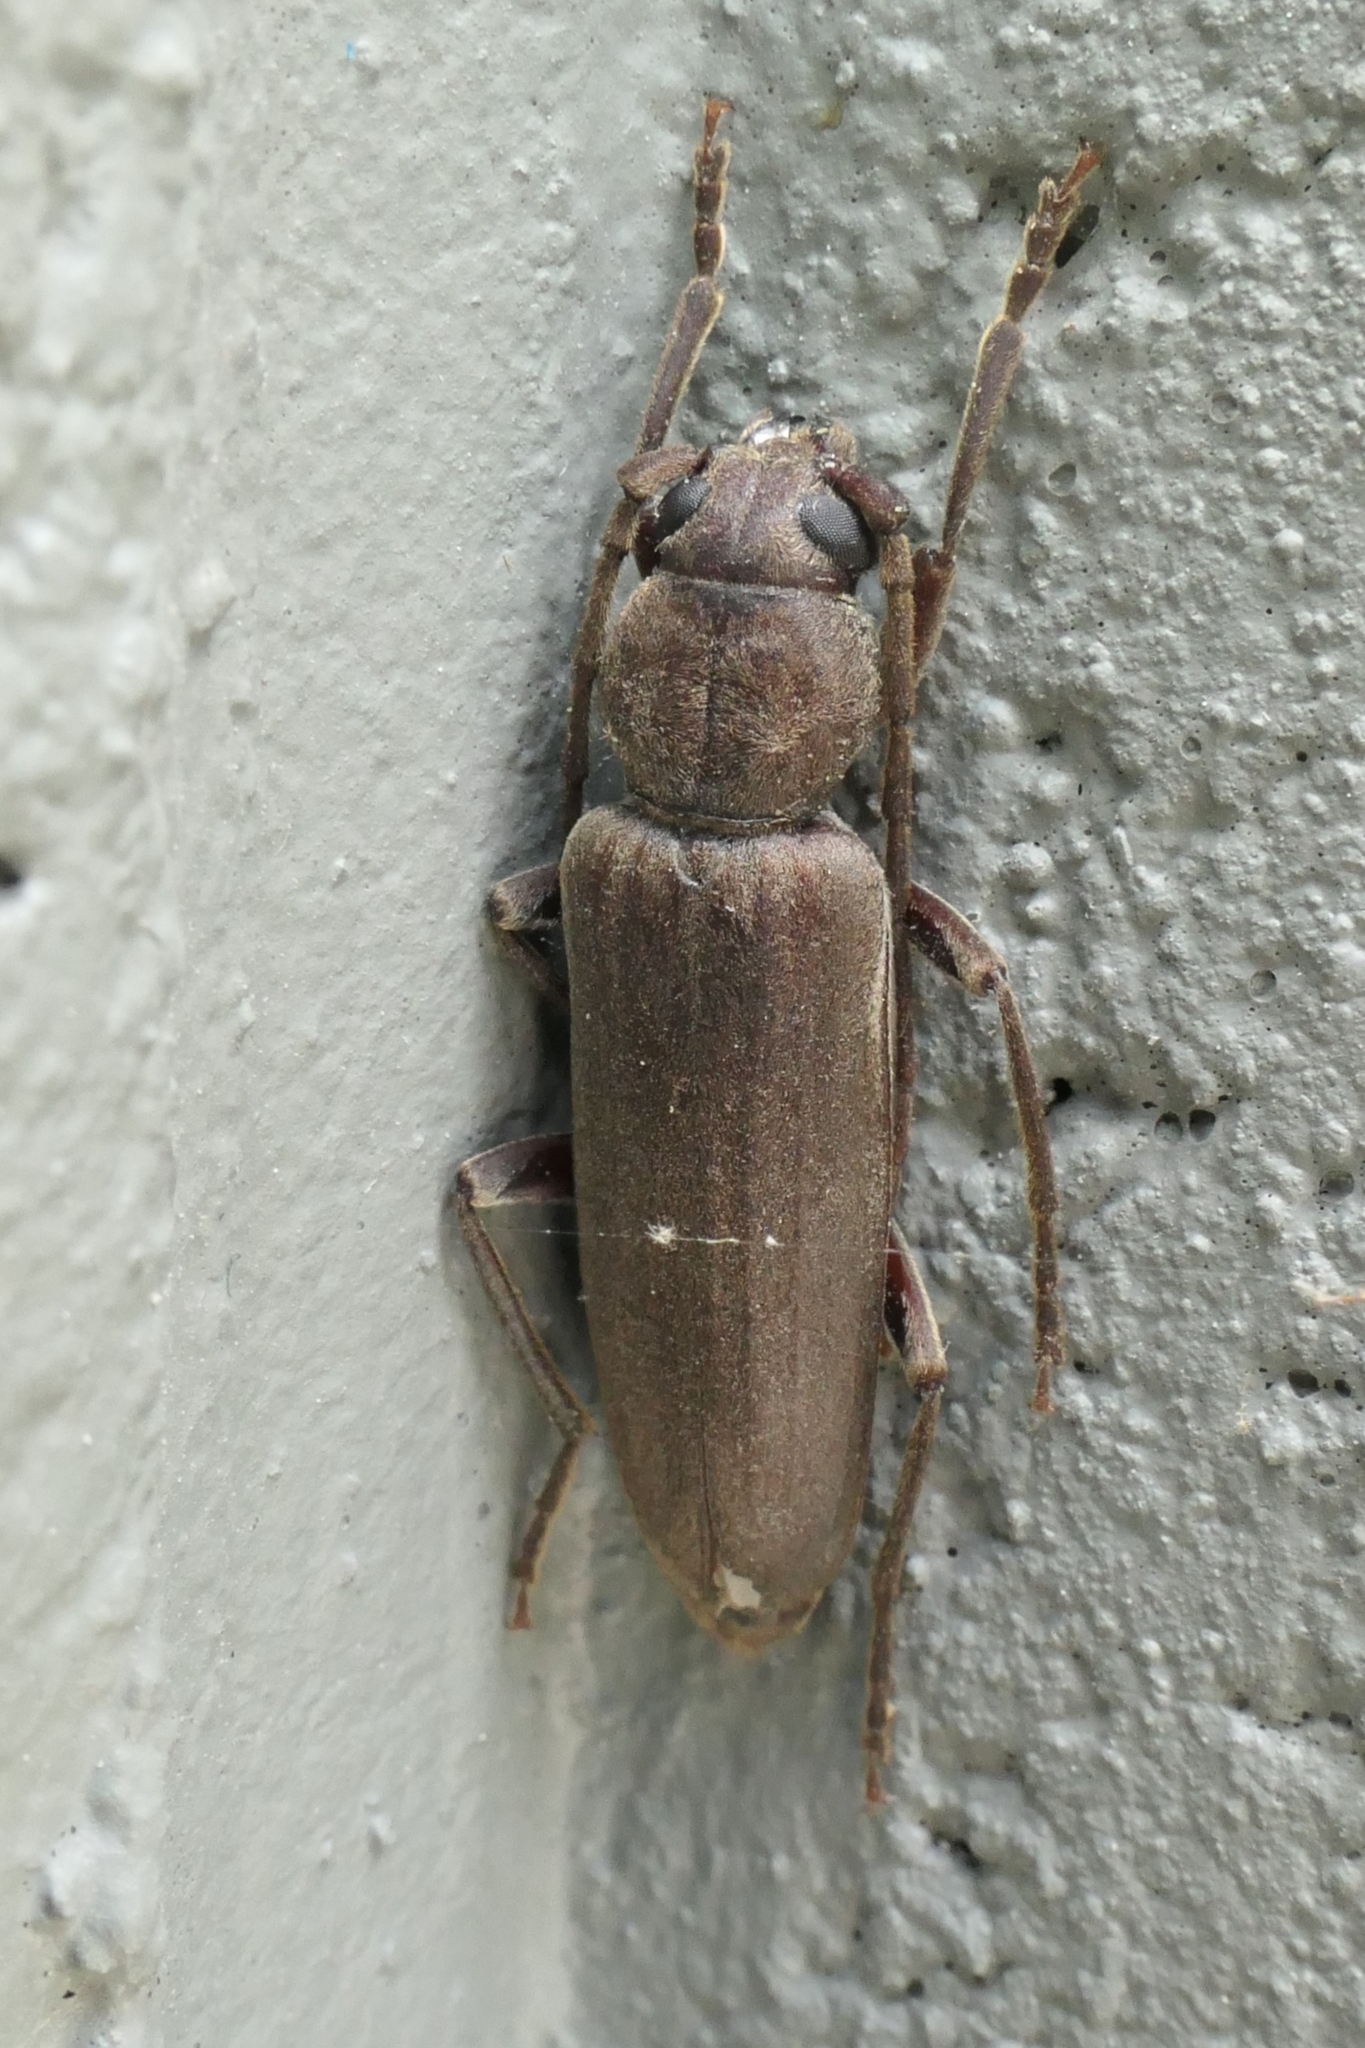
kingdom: Animalia
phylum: Arthropoda
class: Insecta
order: Coleoptera
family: Cerambycidae
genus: Arhopalus
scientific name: Arhopalus ferus
